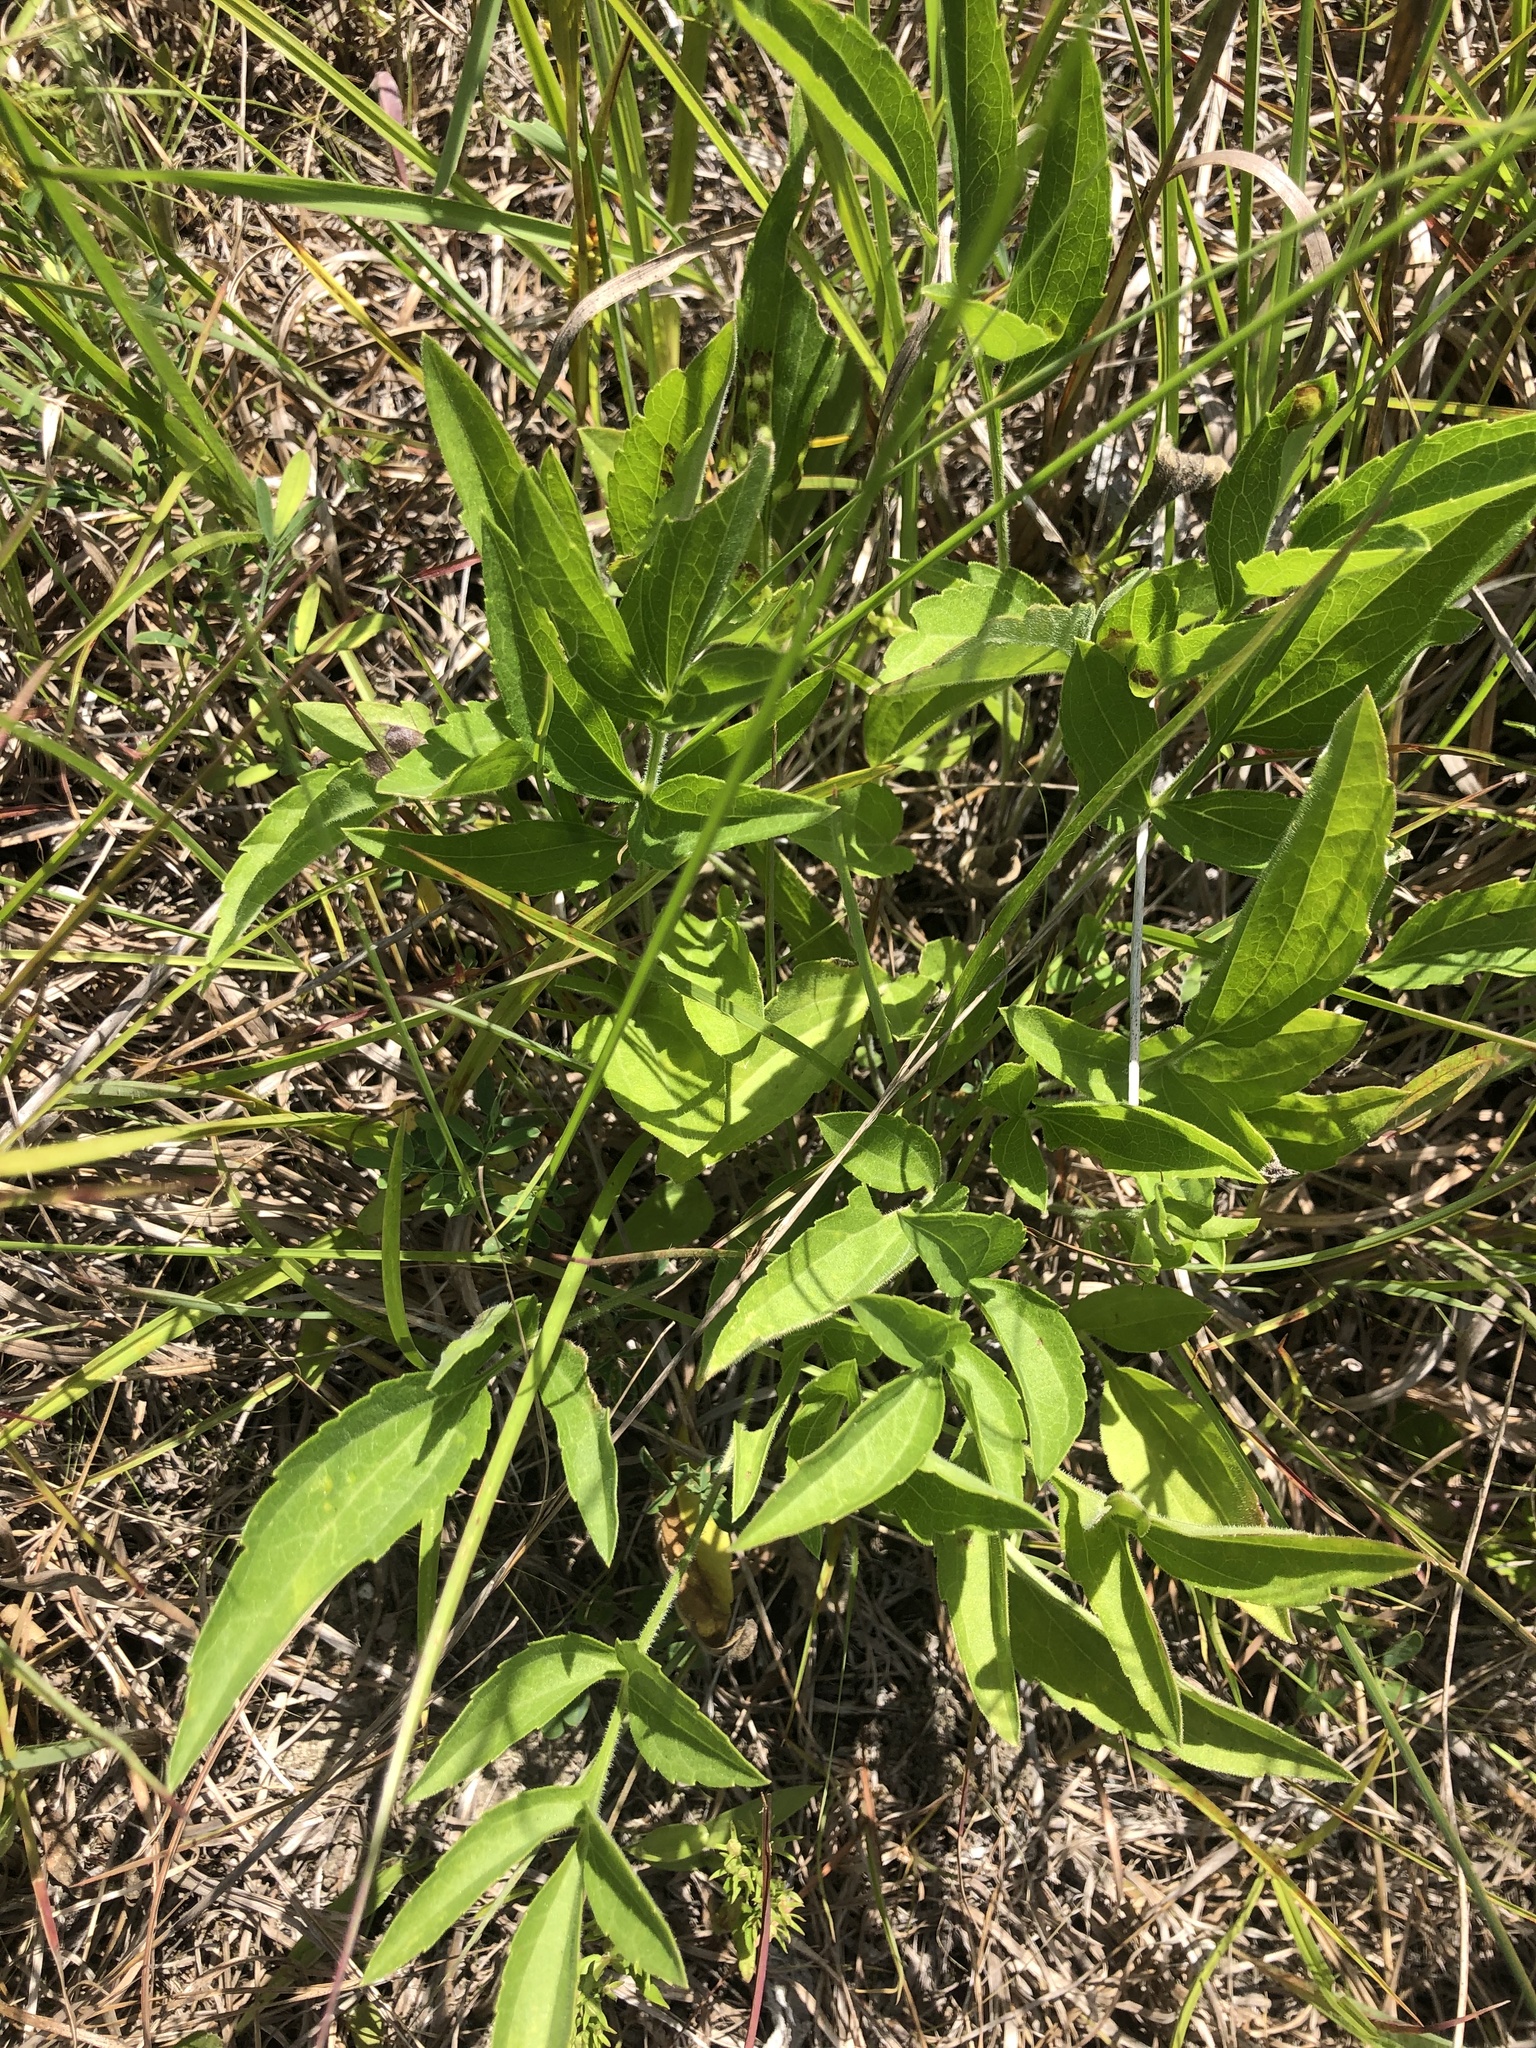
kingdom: Plantae
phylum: Tracheophyta
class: Magnoliopsida
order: Asterales
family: Asteraceae
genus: Ratibida
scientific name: Ratibida pinnata
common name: Drooping prairie-coneflower
